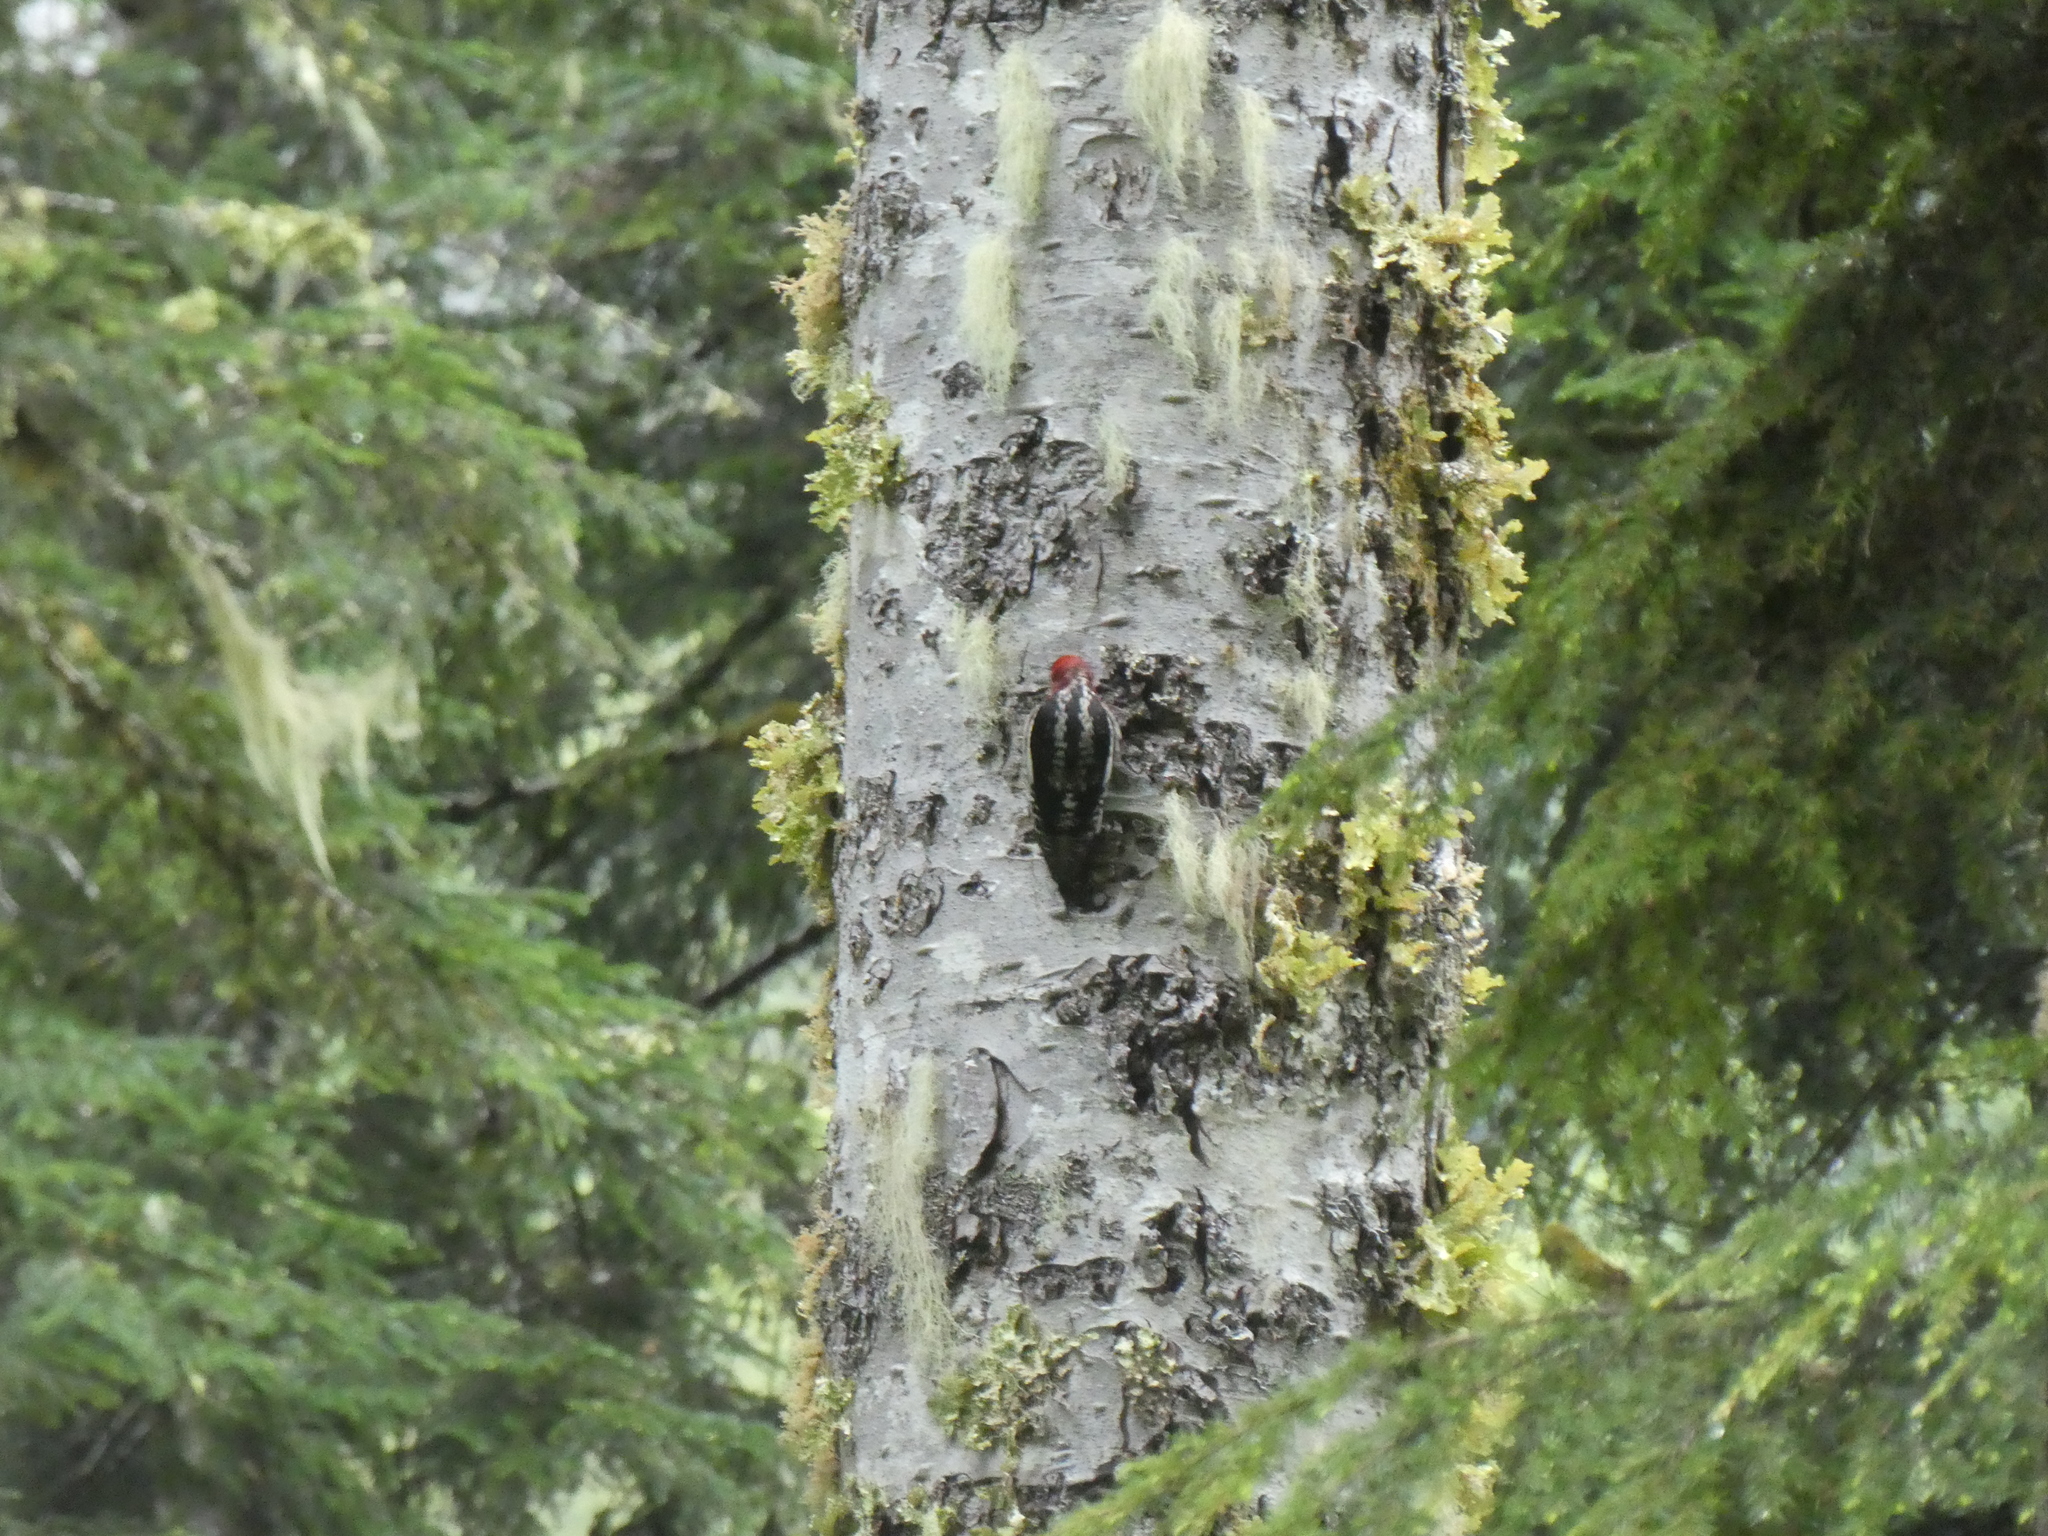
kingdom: Animalia
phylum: Chordata
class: Aves
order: Piciformes
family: Picidae
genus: Sphyrapicus
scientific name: Sphyrapicus ruber
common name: Red-breasted sapsucker
